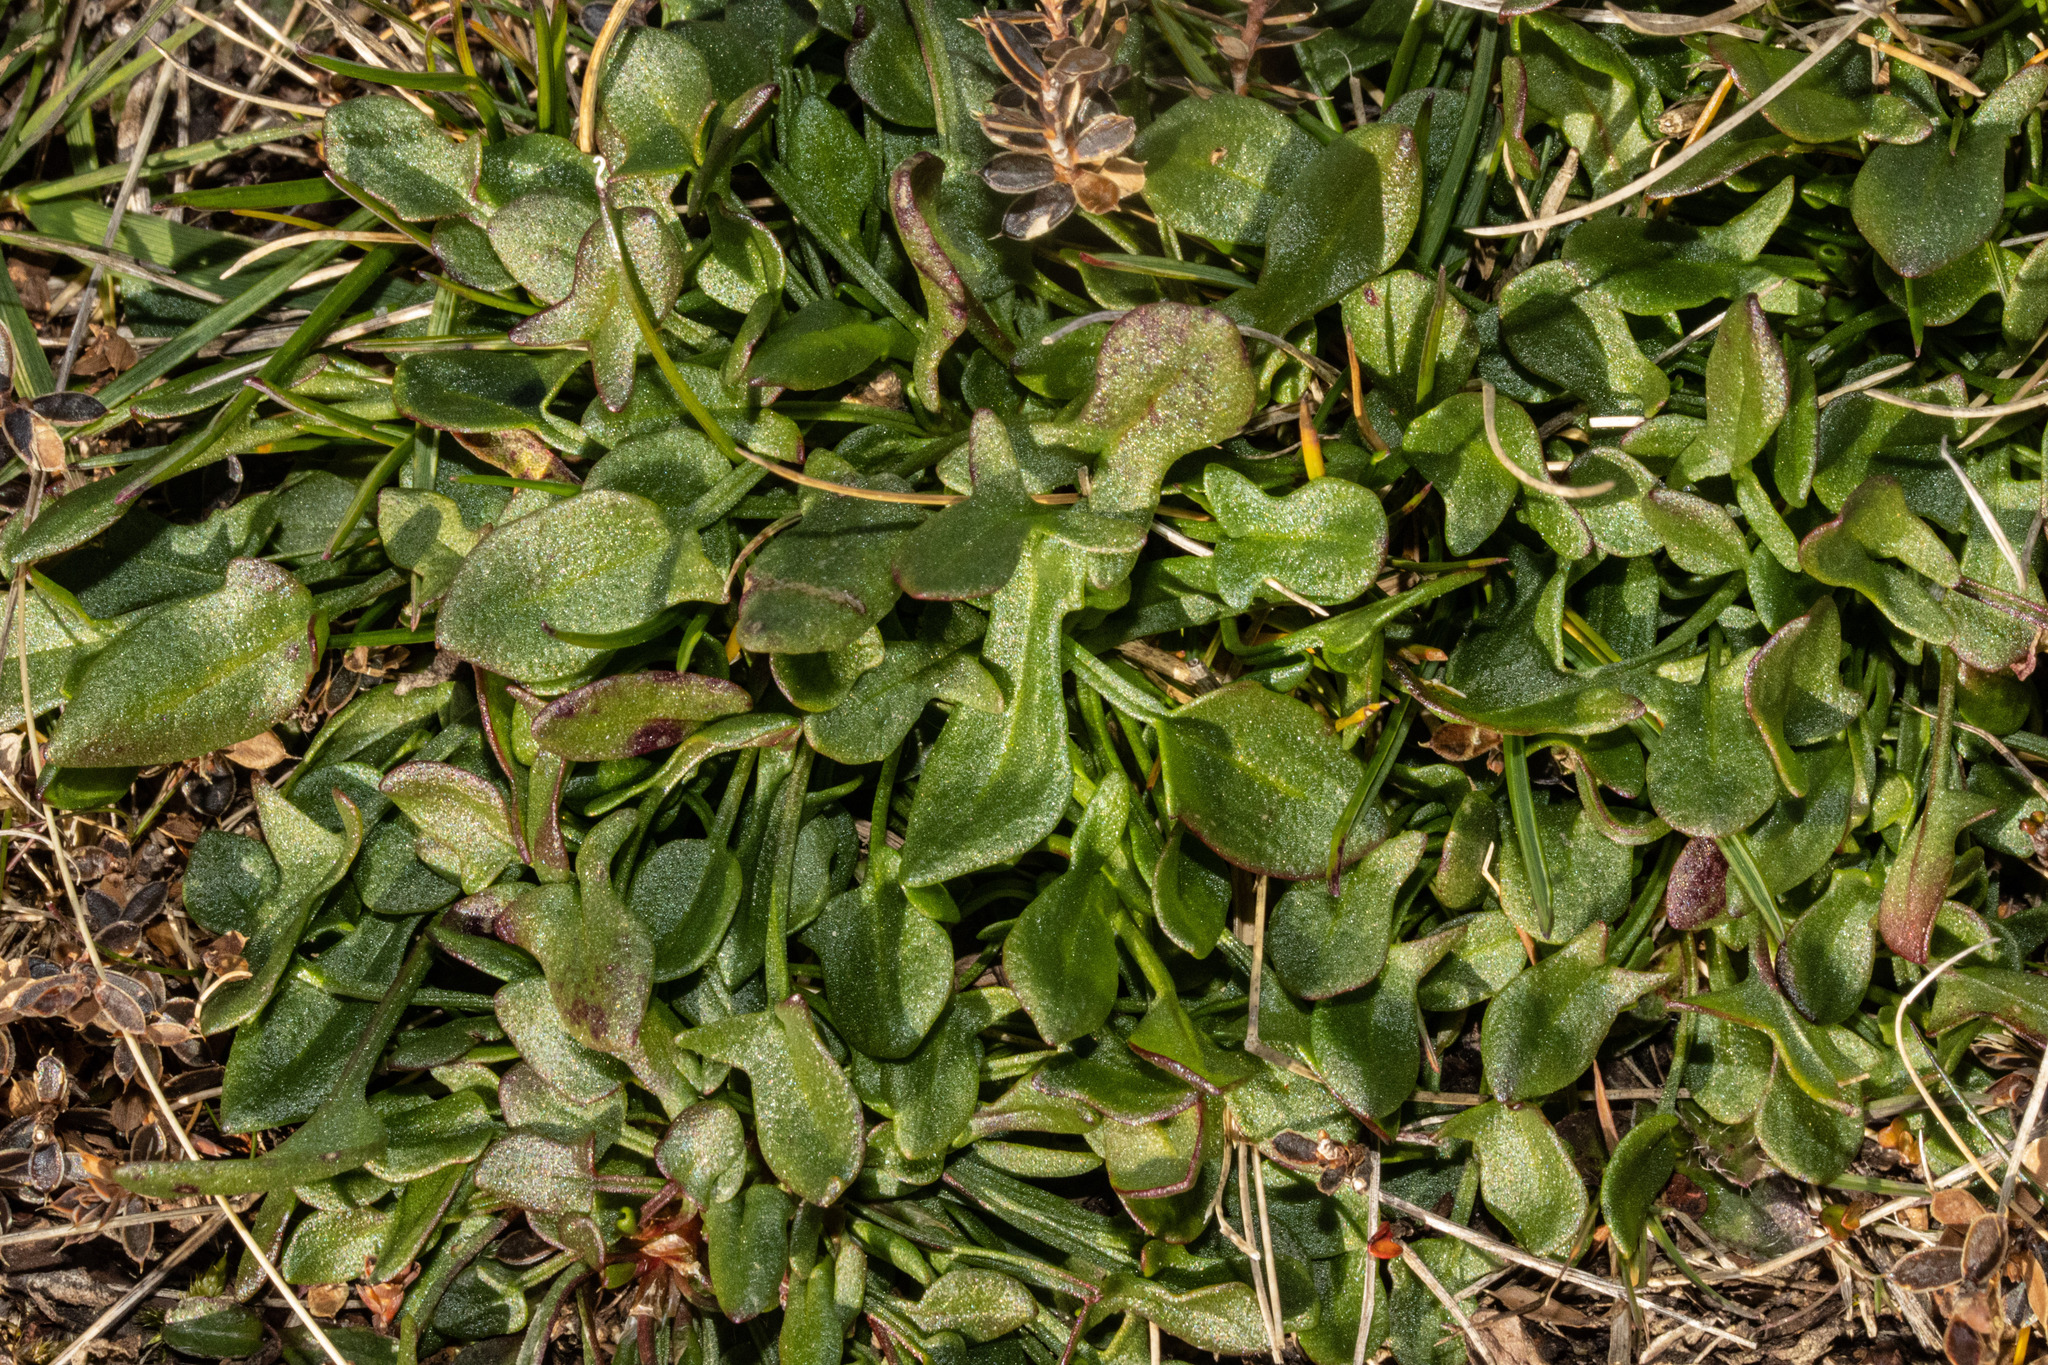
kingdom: Plantae
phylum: Tracheophyta
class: Magnoliopsida
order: Caryophyllales
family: Polygonaceae
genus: Rumex
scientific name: Rumex acetosella
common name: Common sheep sorrel
